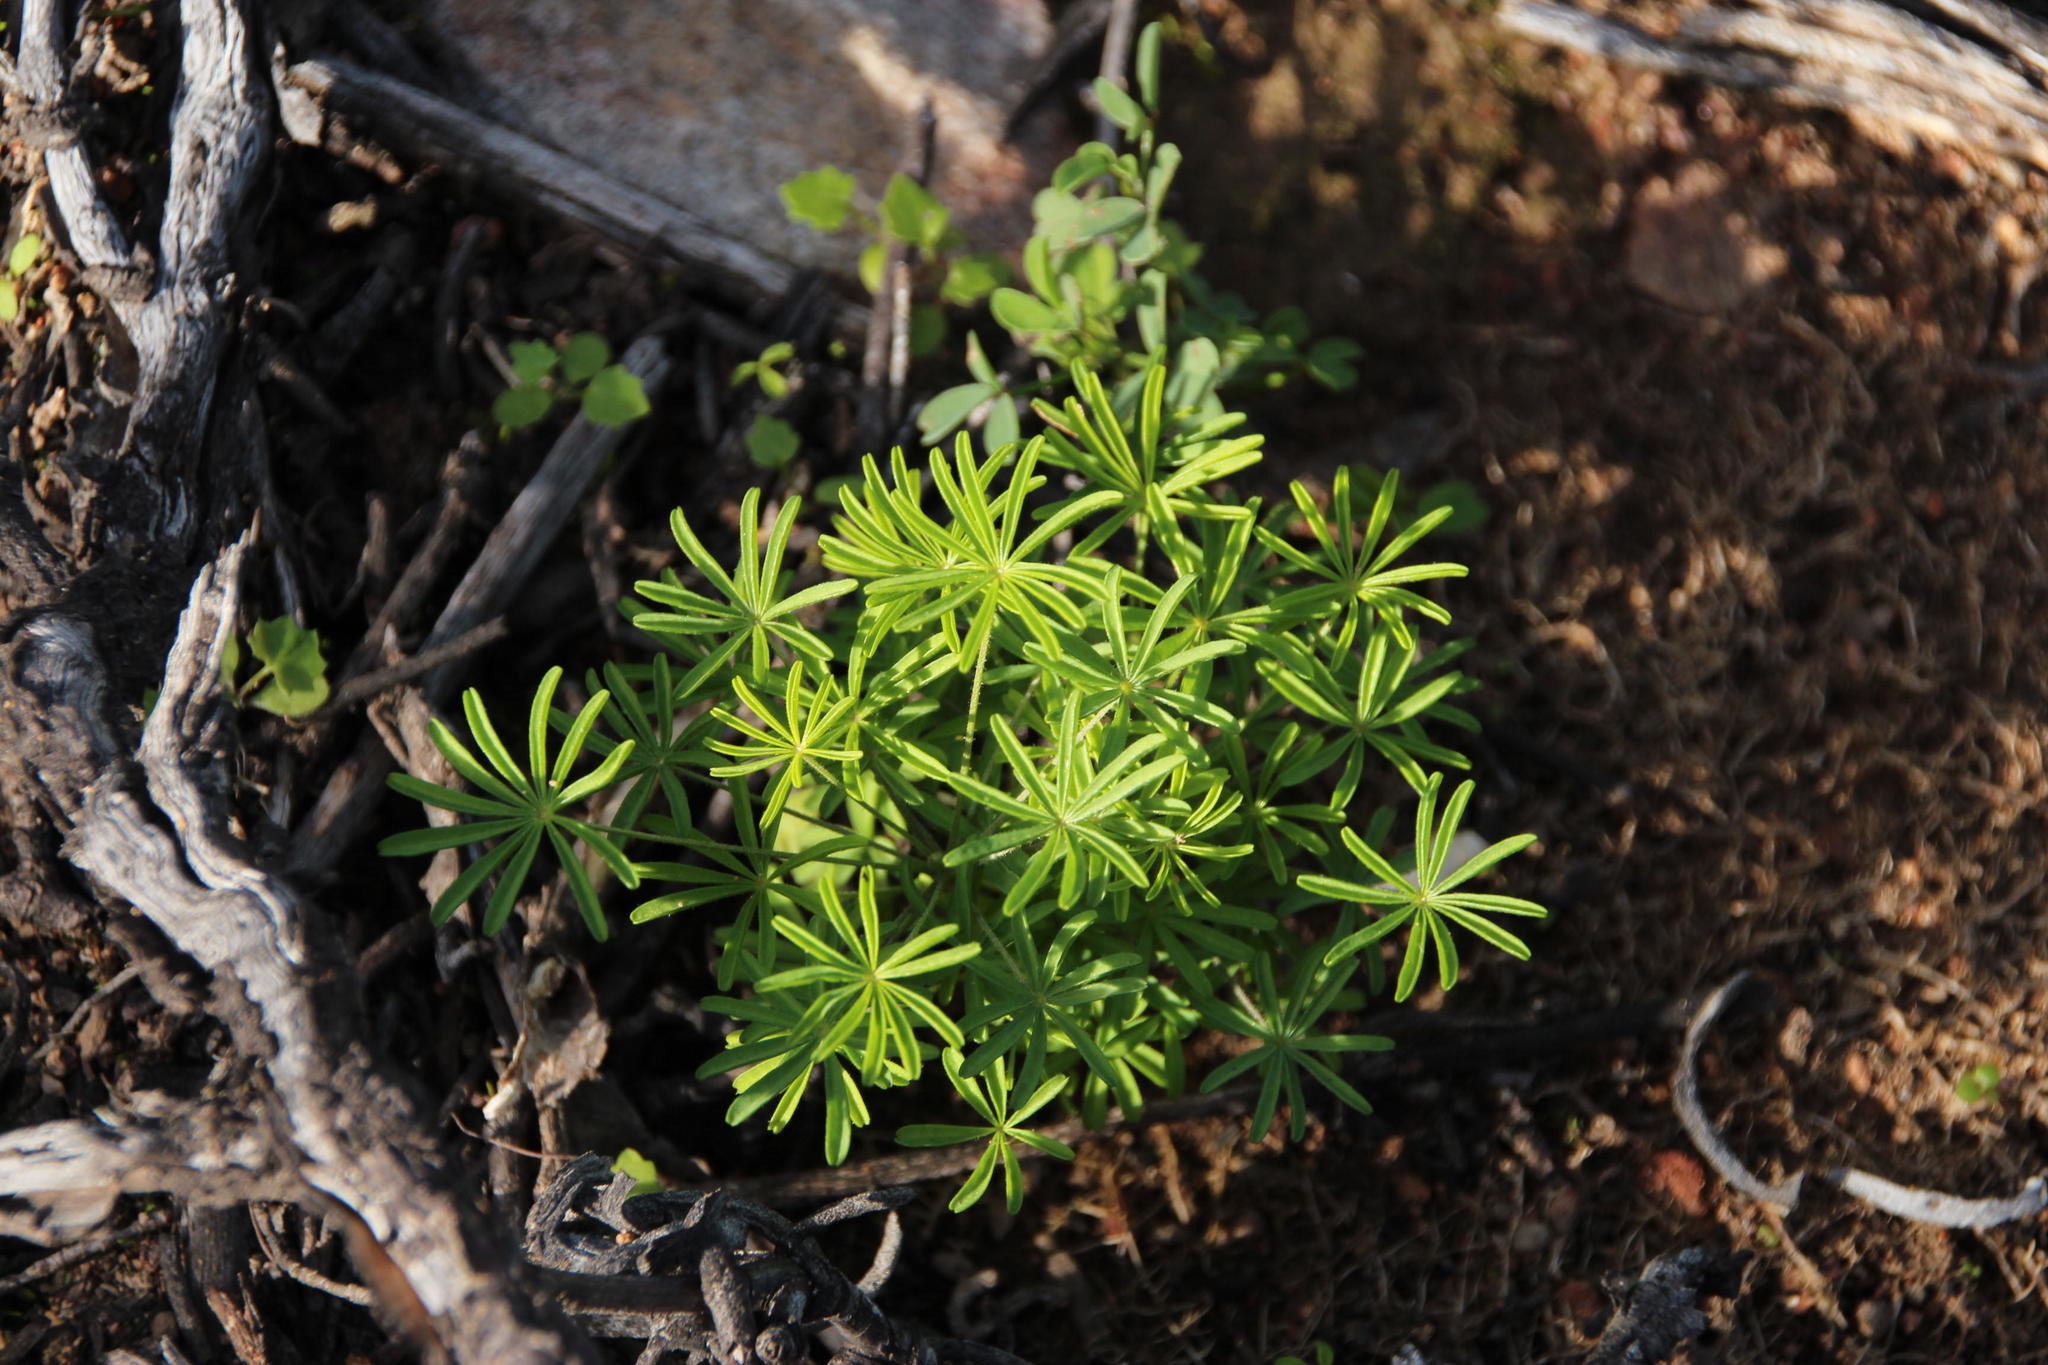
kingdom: Plantae
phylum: Tracheophyta
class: Magnoliopsida
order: Oxalidales
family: Oxalidaceae
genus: Oxalis
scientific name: Oxalis engleriana
